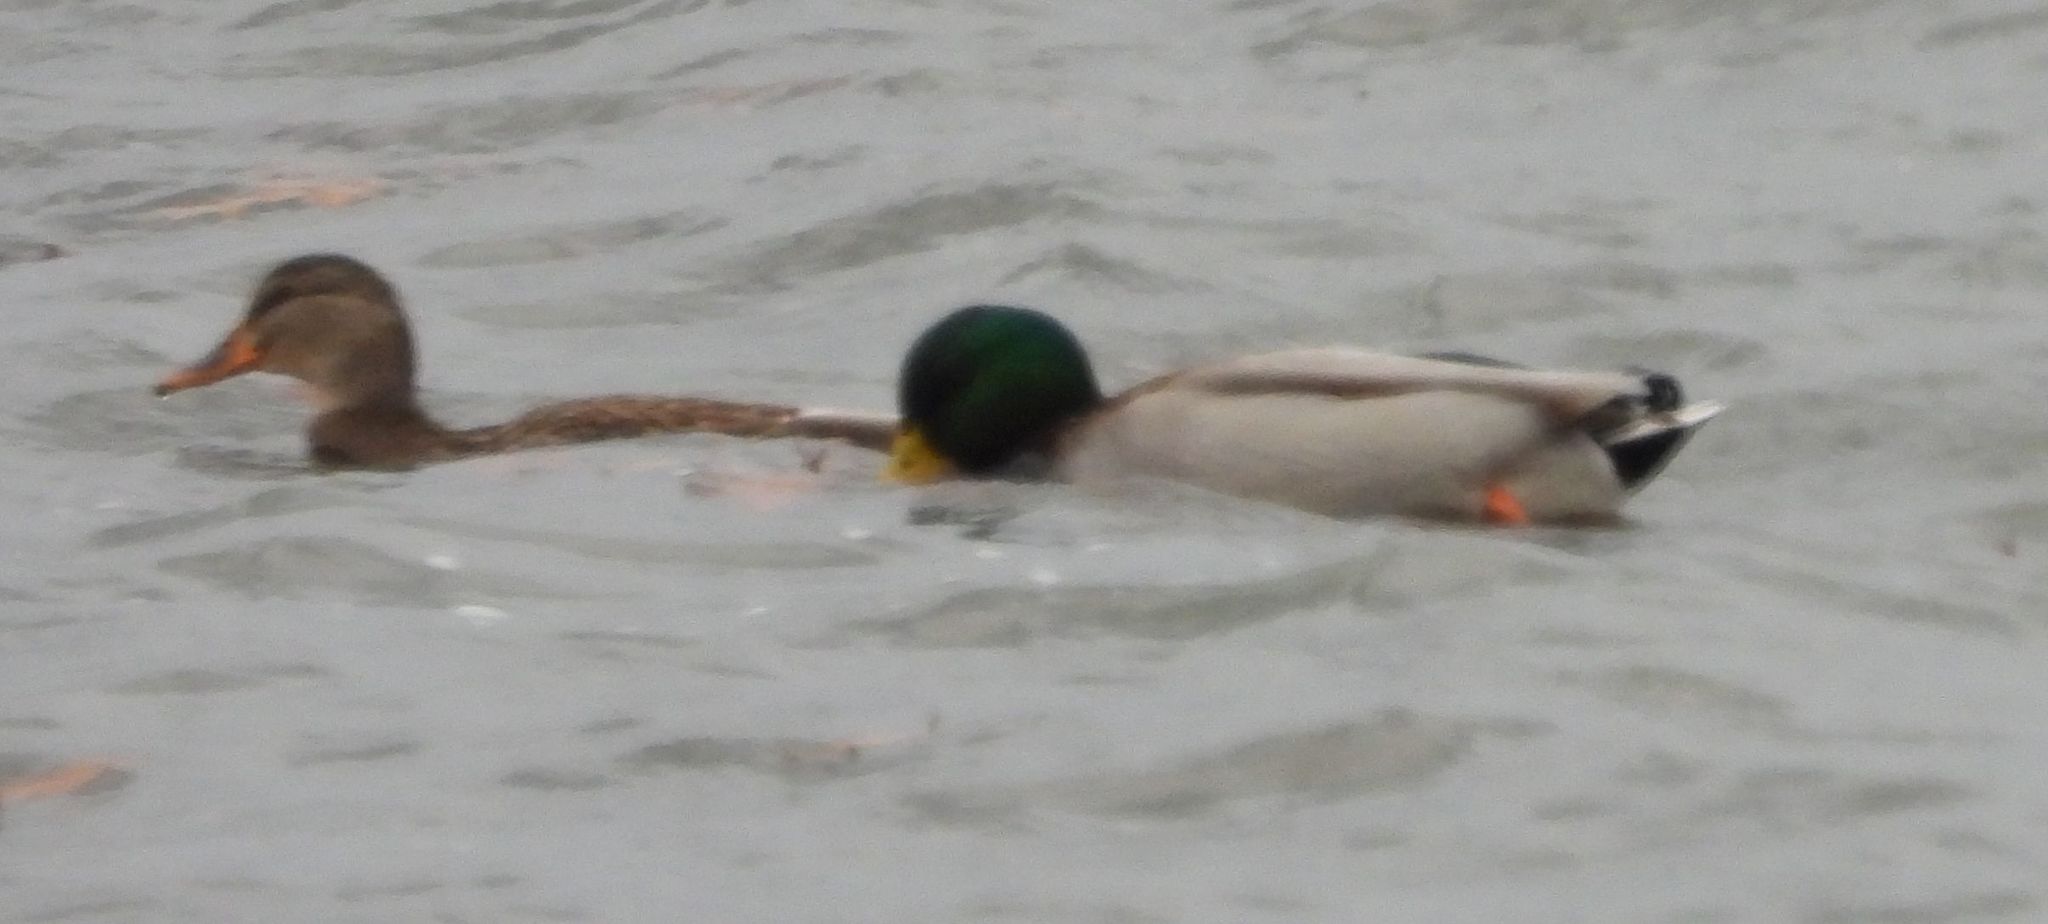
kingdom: Animalia
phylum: Chordata
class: Aves
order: Anseriformes
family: Anatidae
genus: Anas
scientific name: Anas platyrhynchos
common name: Mallard
